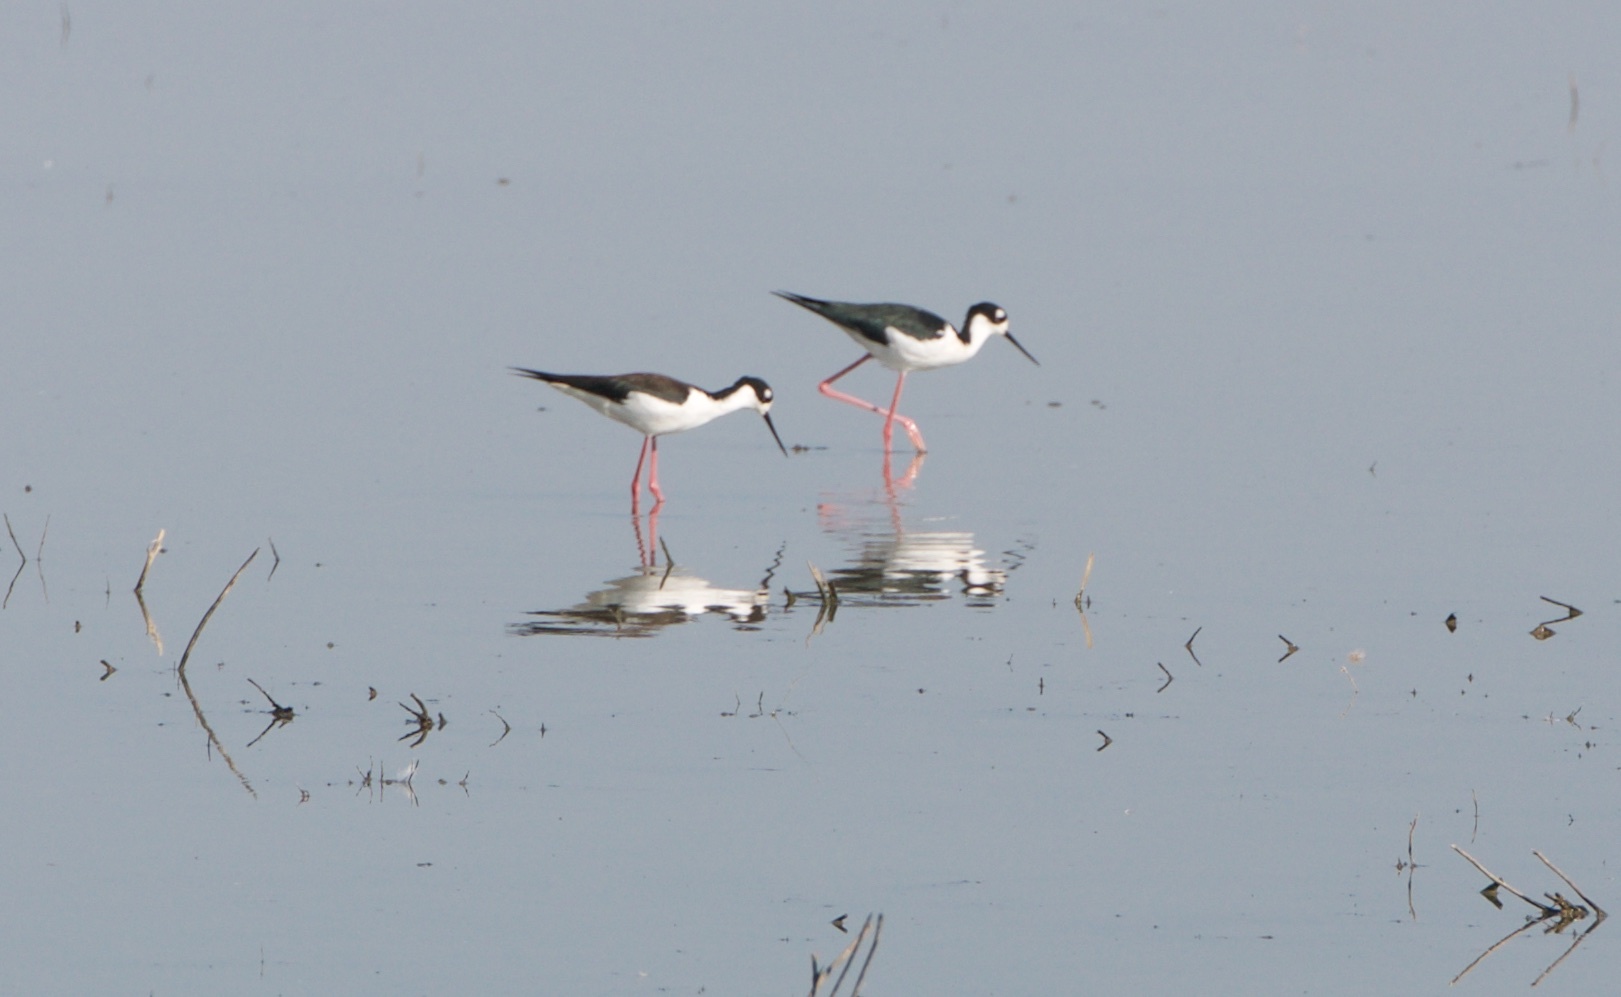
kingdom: Animalia
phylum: Chordata
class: Aves
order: Charadriiformes
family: Recurvirostridae
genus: Himantopus
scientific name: Himantopus mexicanus
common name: Black-necked stilt
